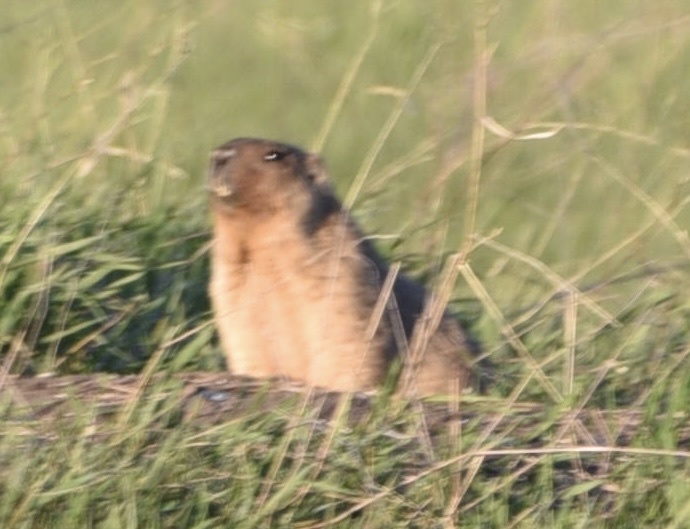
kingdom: Animalia
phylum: Chordata
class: Mammalia
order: Rodentia
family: Sciuridae
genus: Marmota
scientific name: Marmota bobak
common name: Bobak marmot
